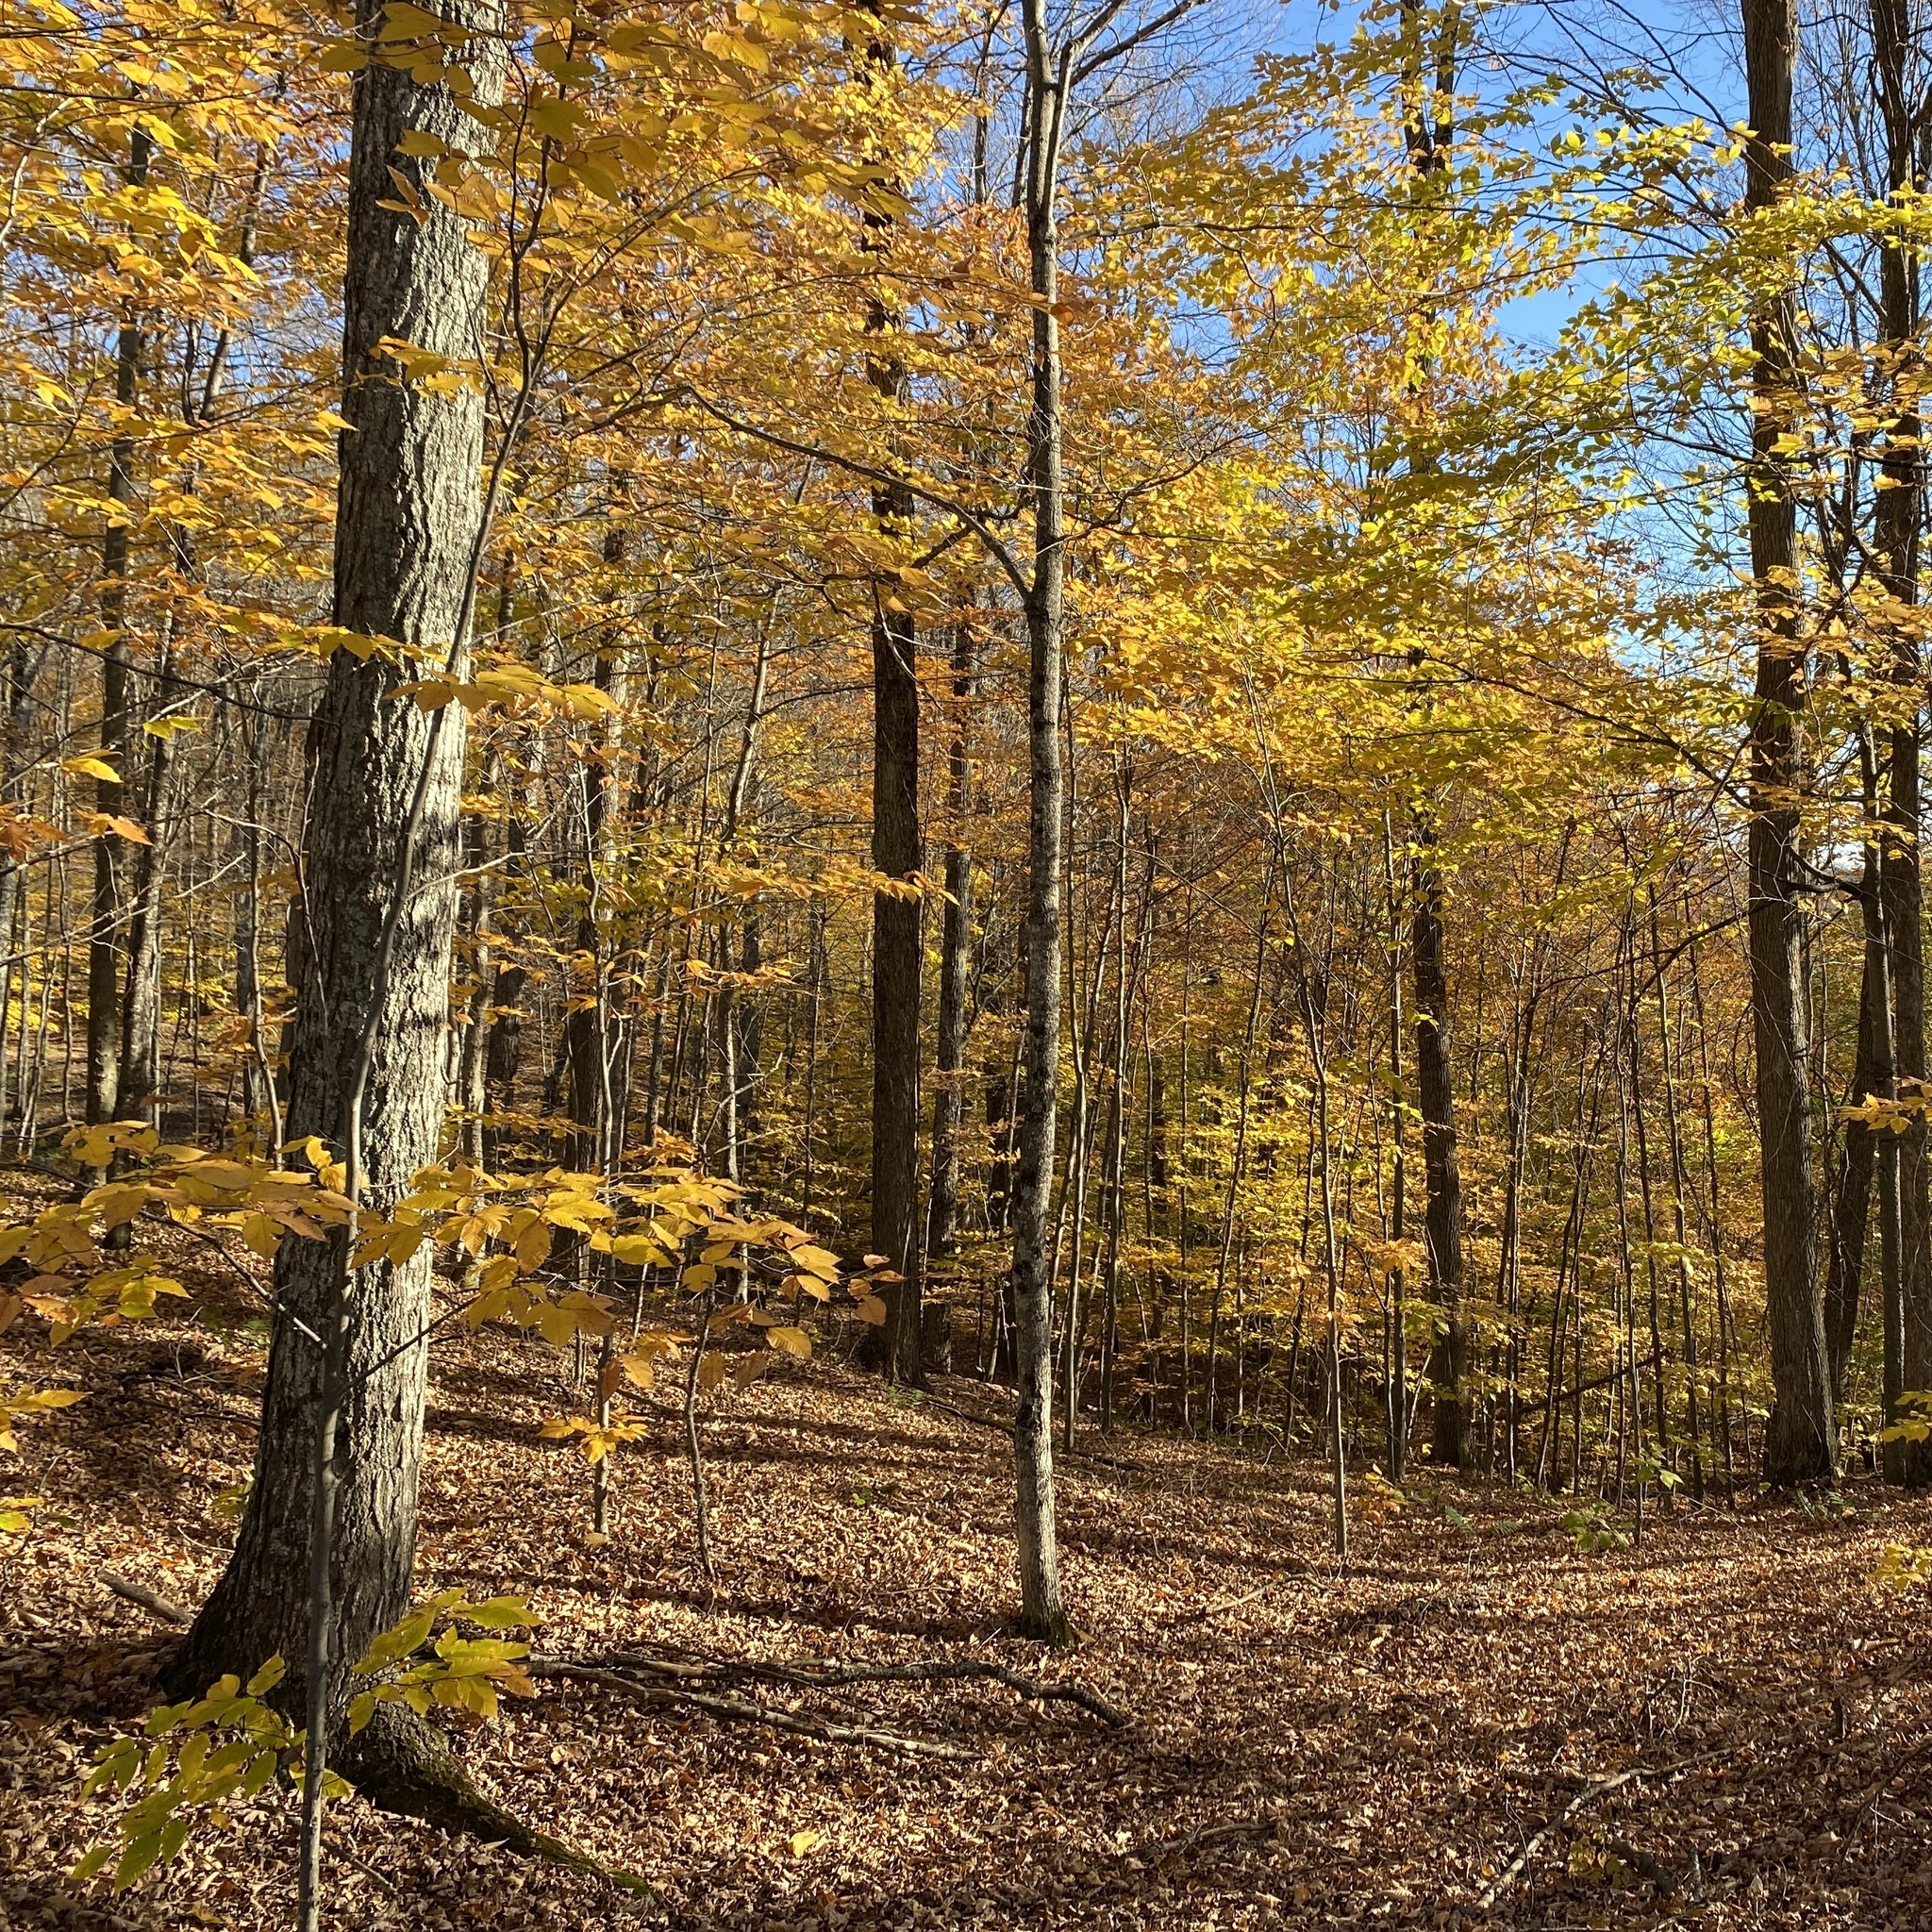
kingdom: Plantae
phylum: Tracheophyta
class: Magnoliopsida
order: Sapindales
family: Sapindaceae
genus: Acer
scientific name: Acer saccharum
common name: Sugar maple
